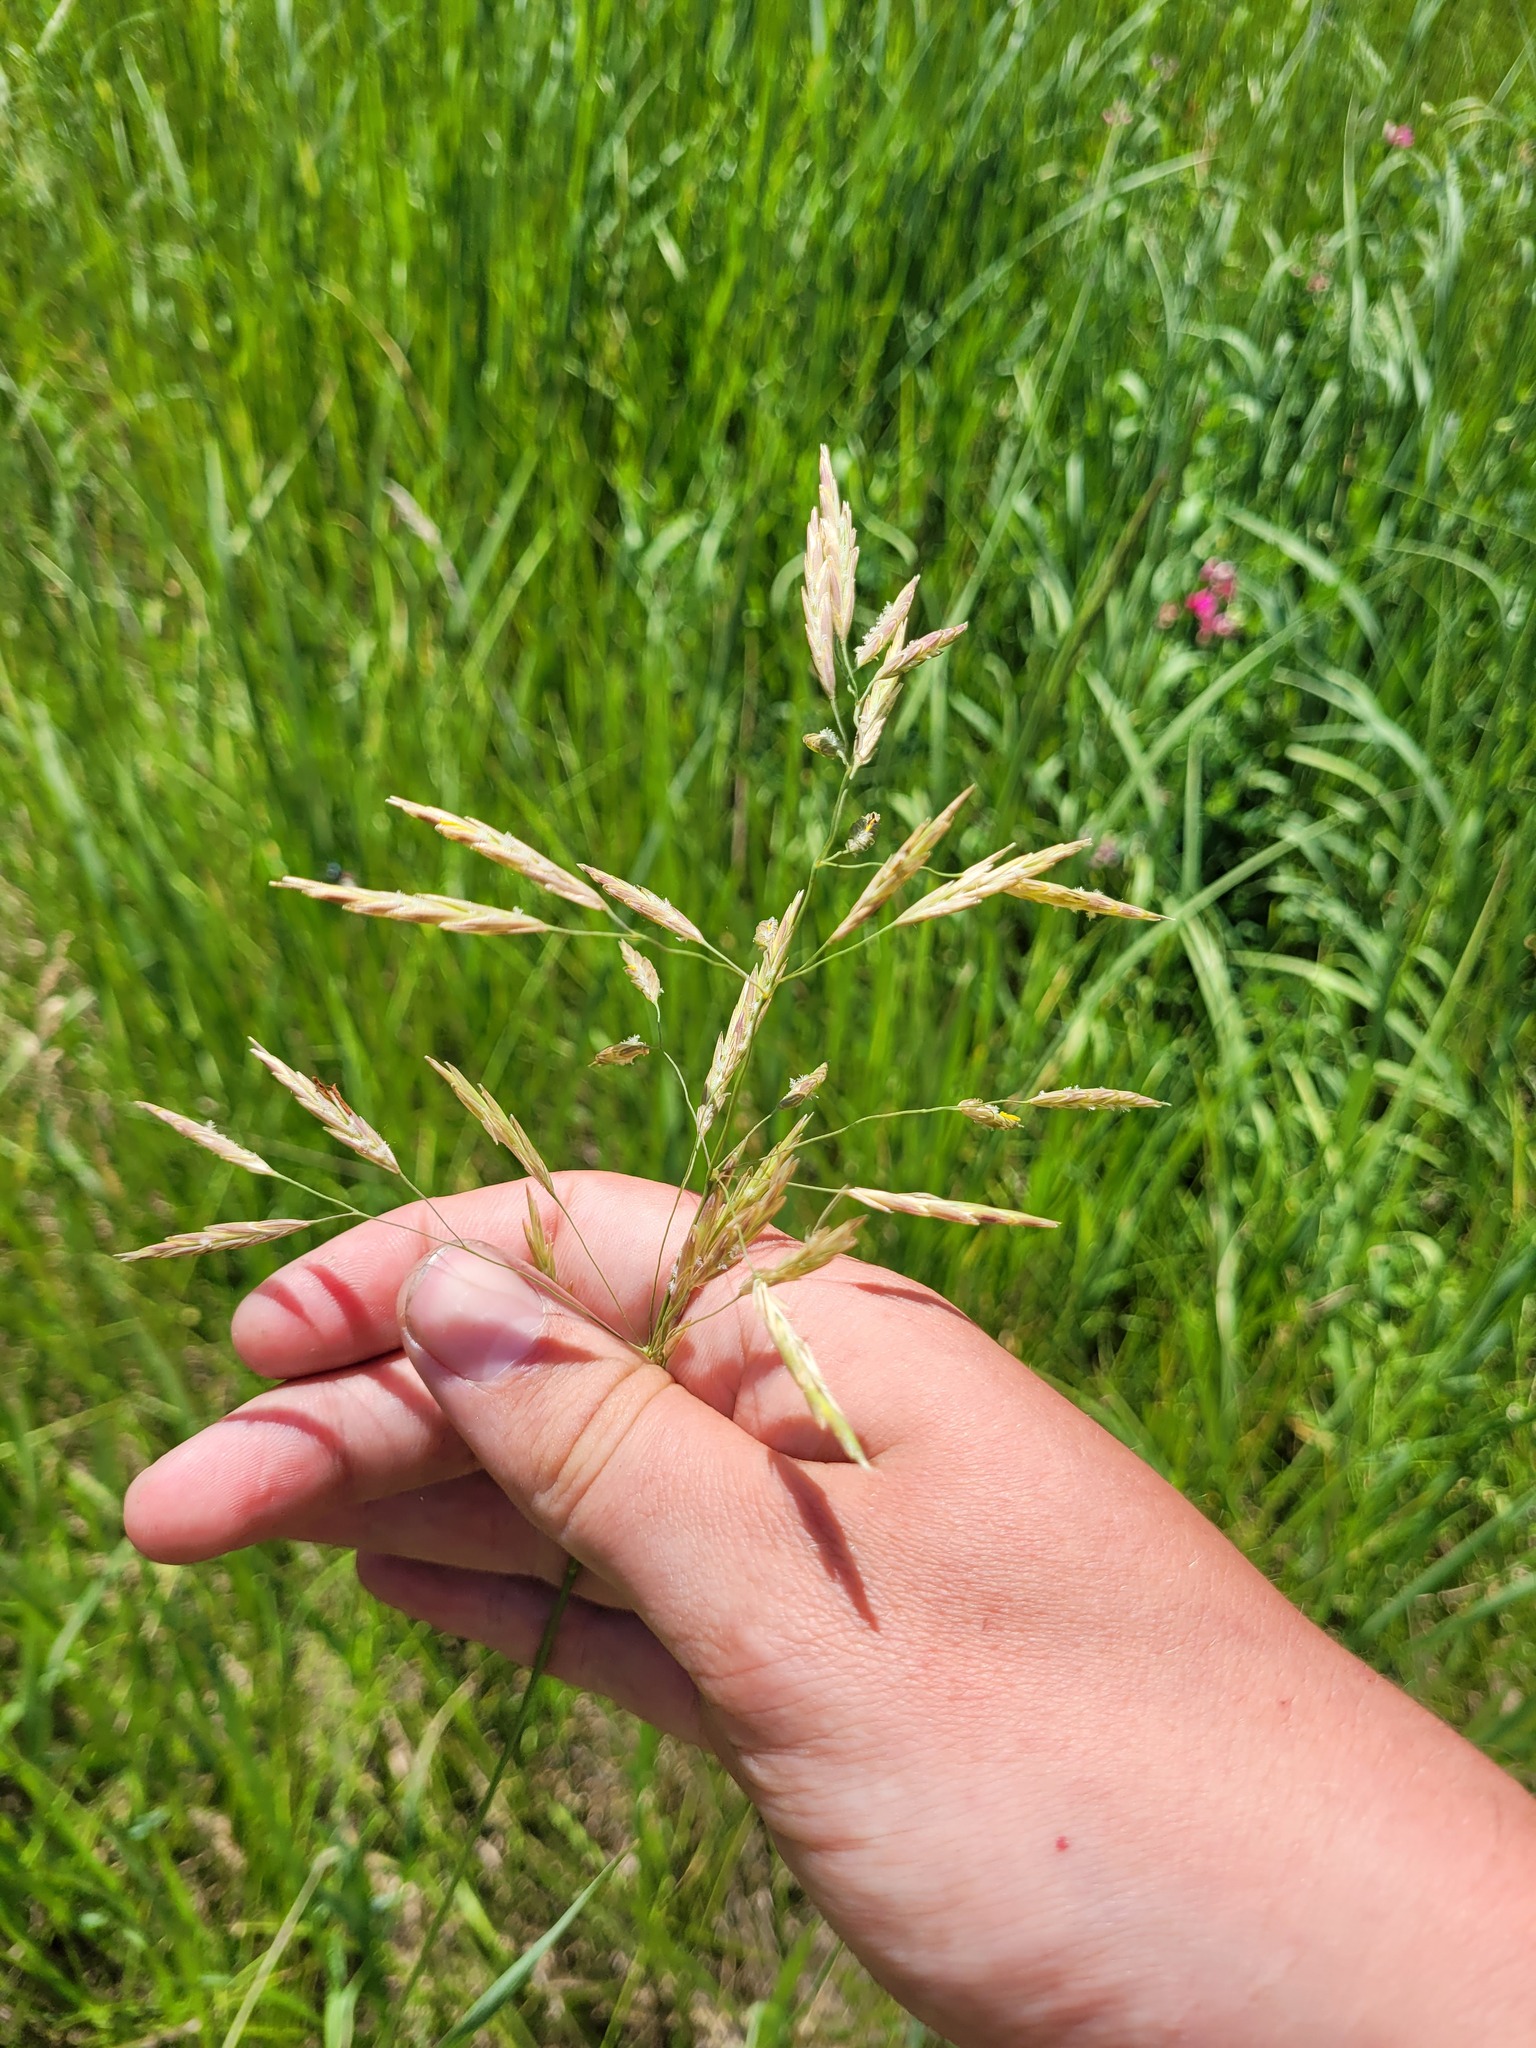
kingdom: Plantae
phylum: Tracheophyta
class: Liliopsida
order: Poales
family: Poaceae
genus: Bromus
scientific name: Bromus inermis
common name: Smooth brome
